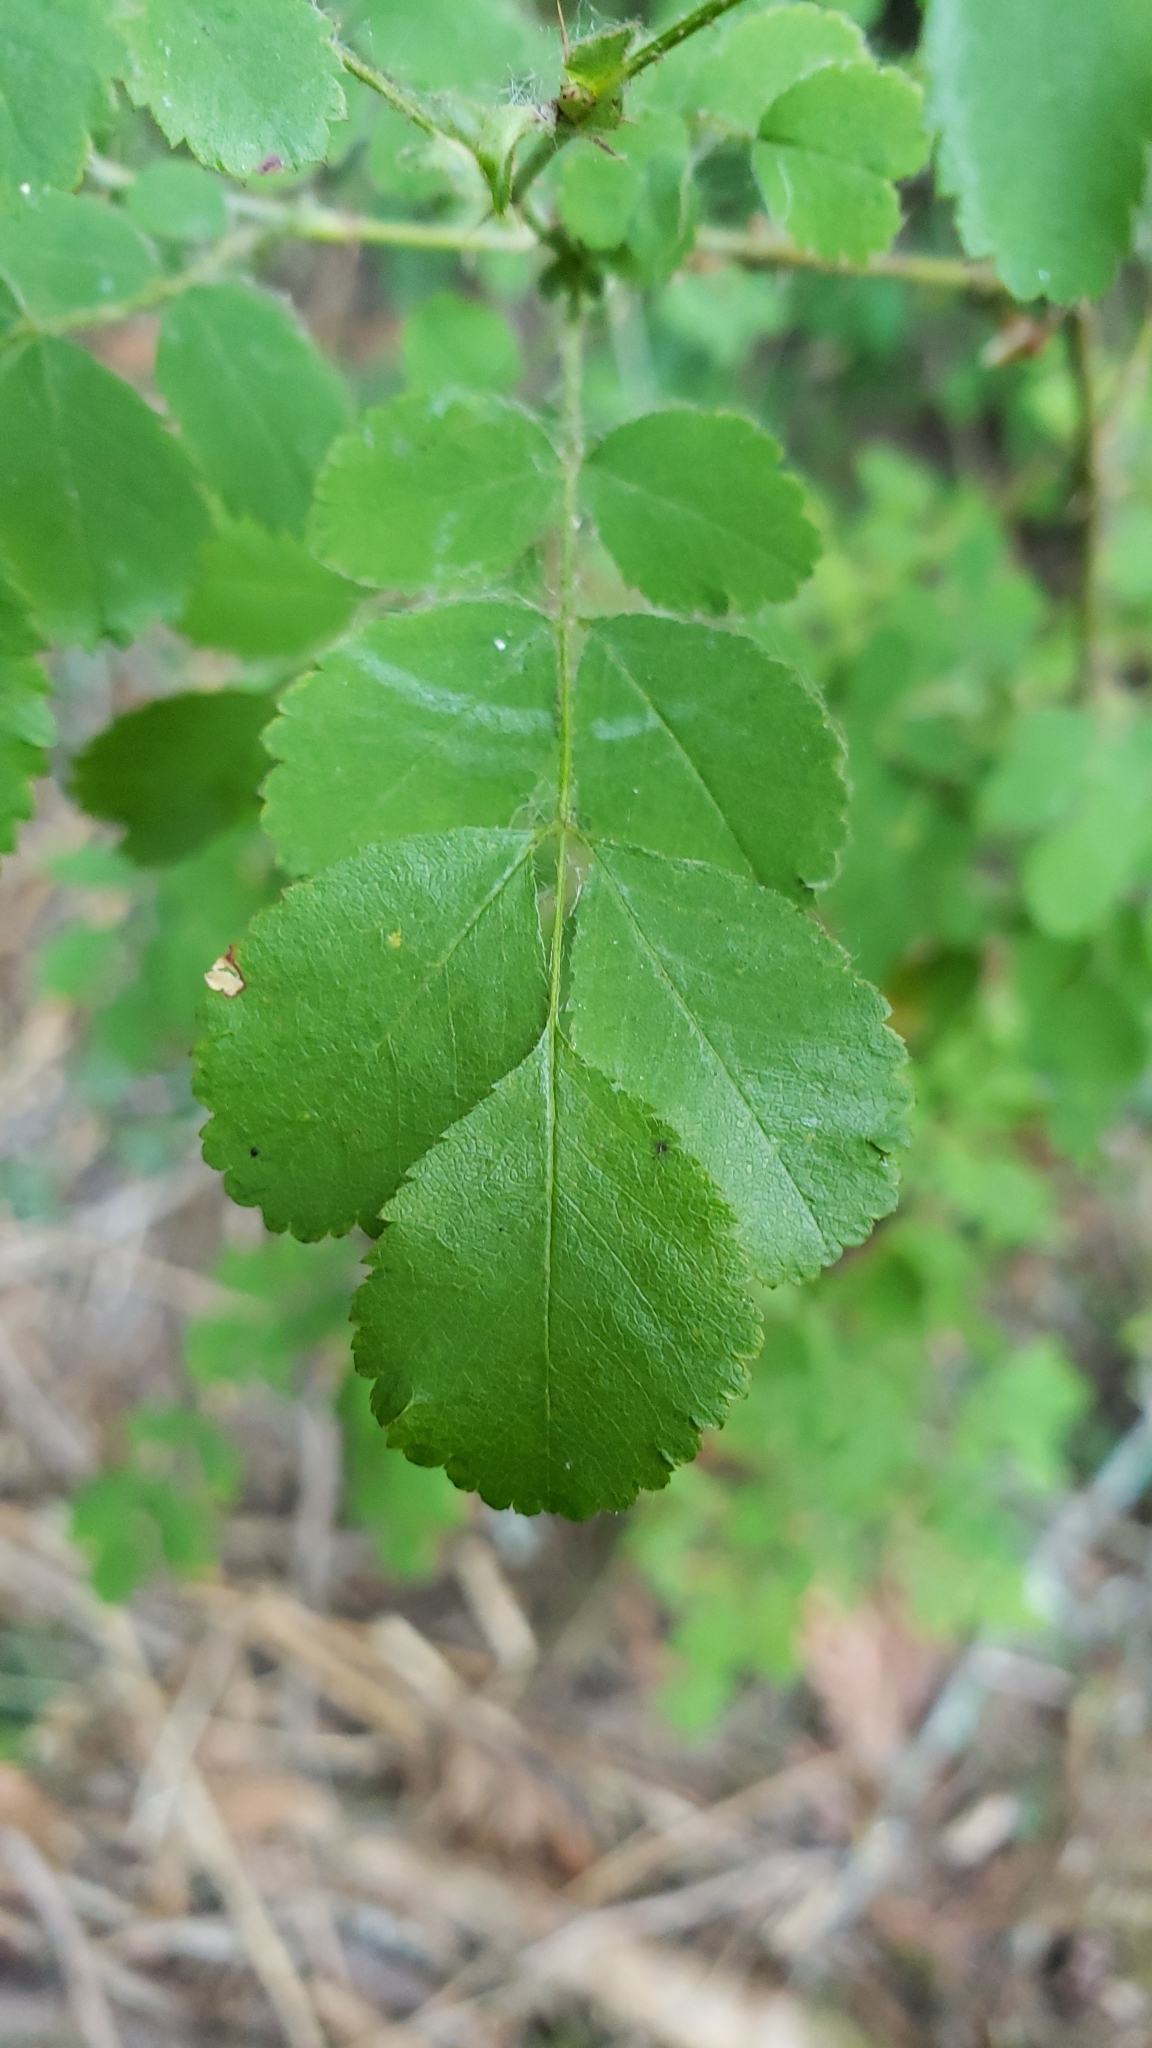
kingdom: Plantae
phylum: Tracheophyta
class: Magnoliopsida
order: Rosales
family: Rosaceae
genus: Rosa
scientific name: Rosa gymnocarpa
